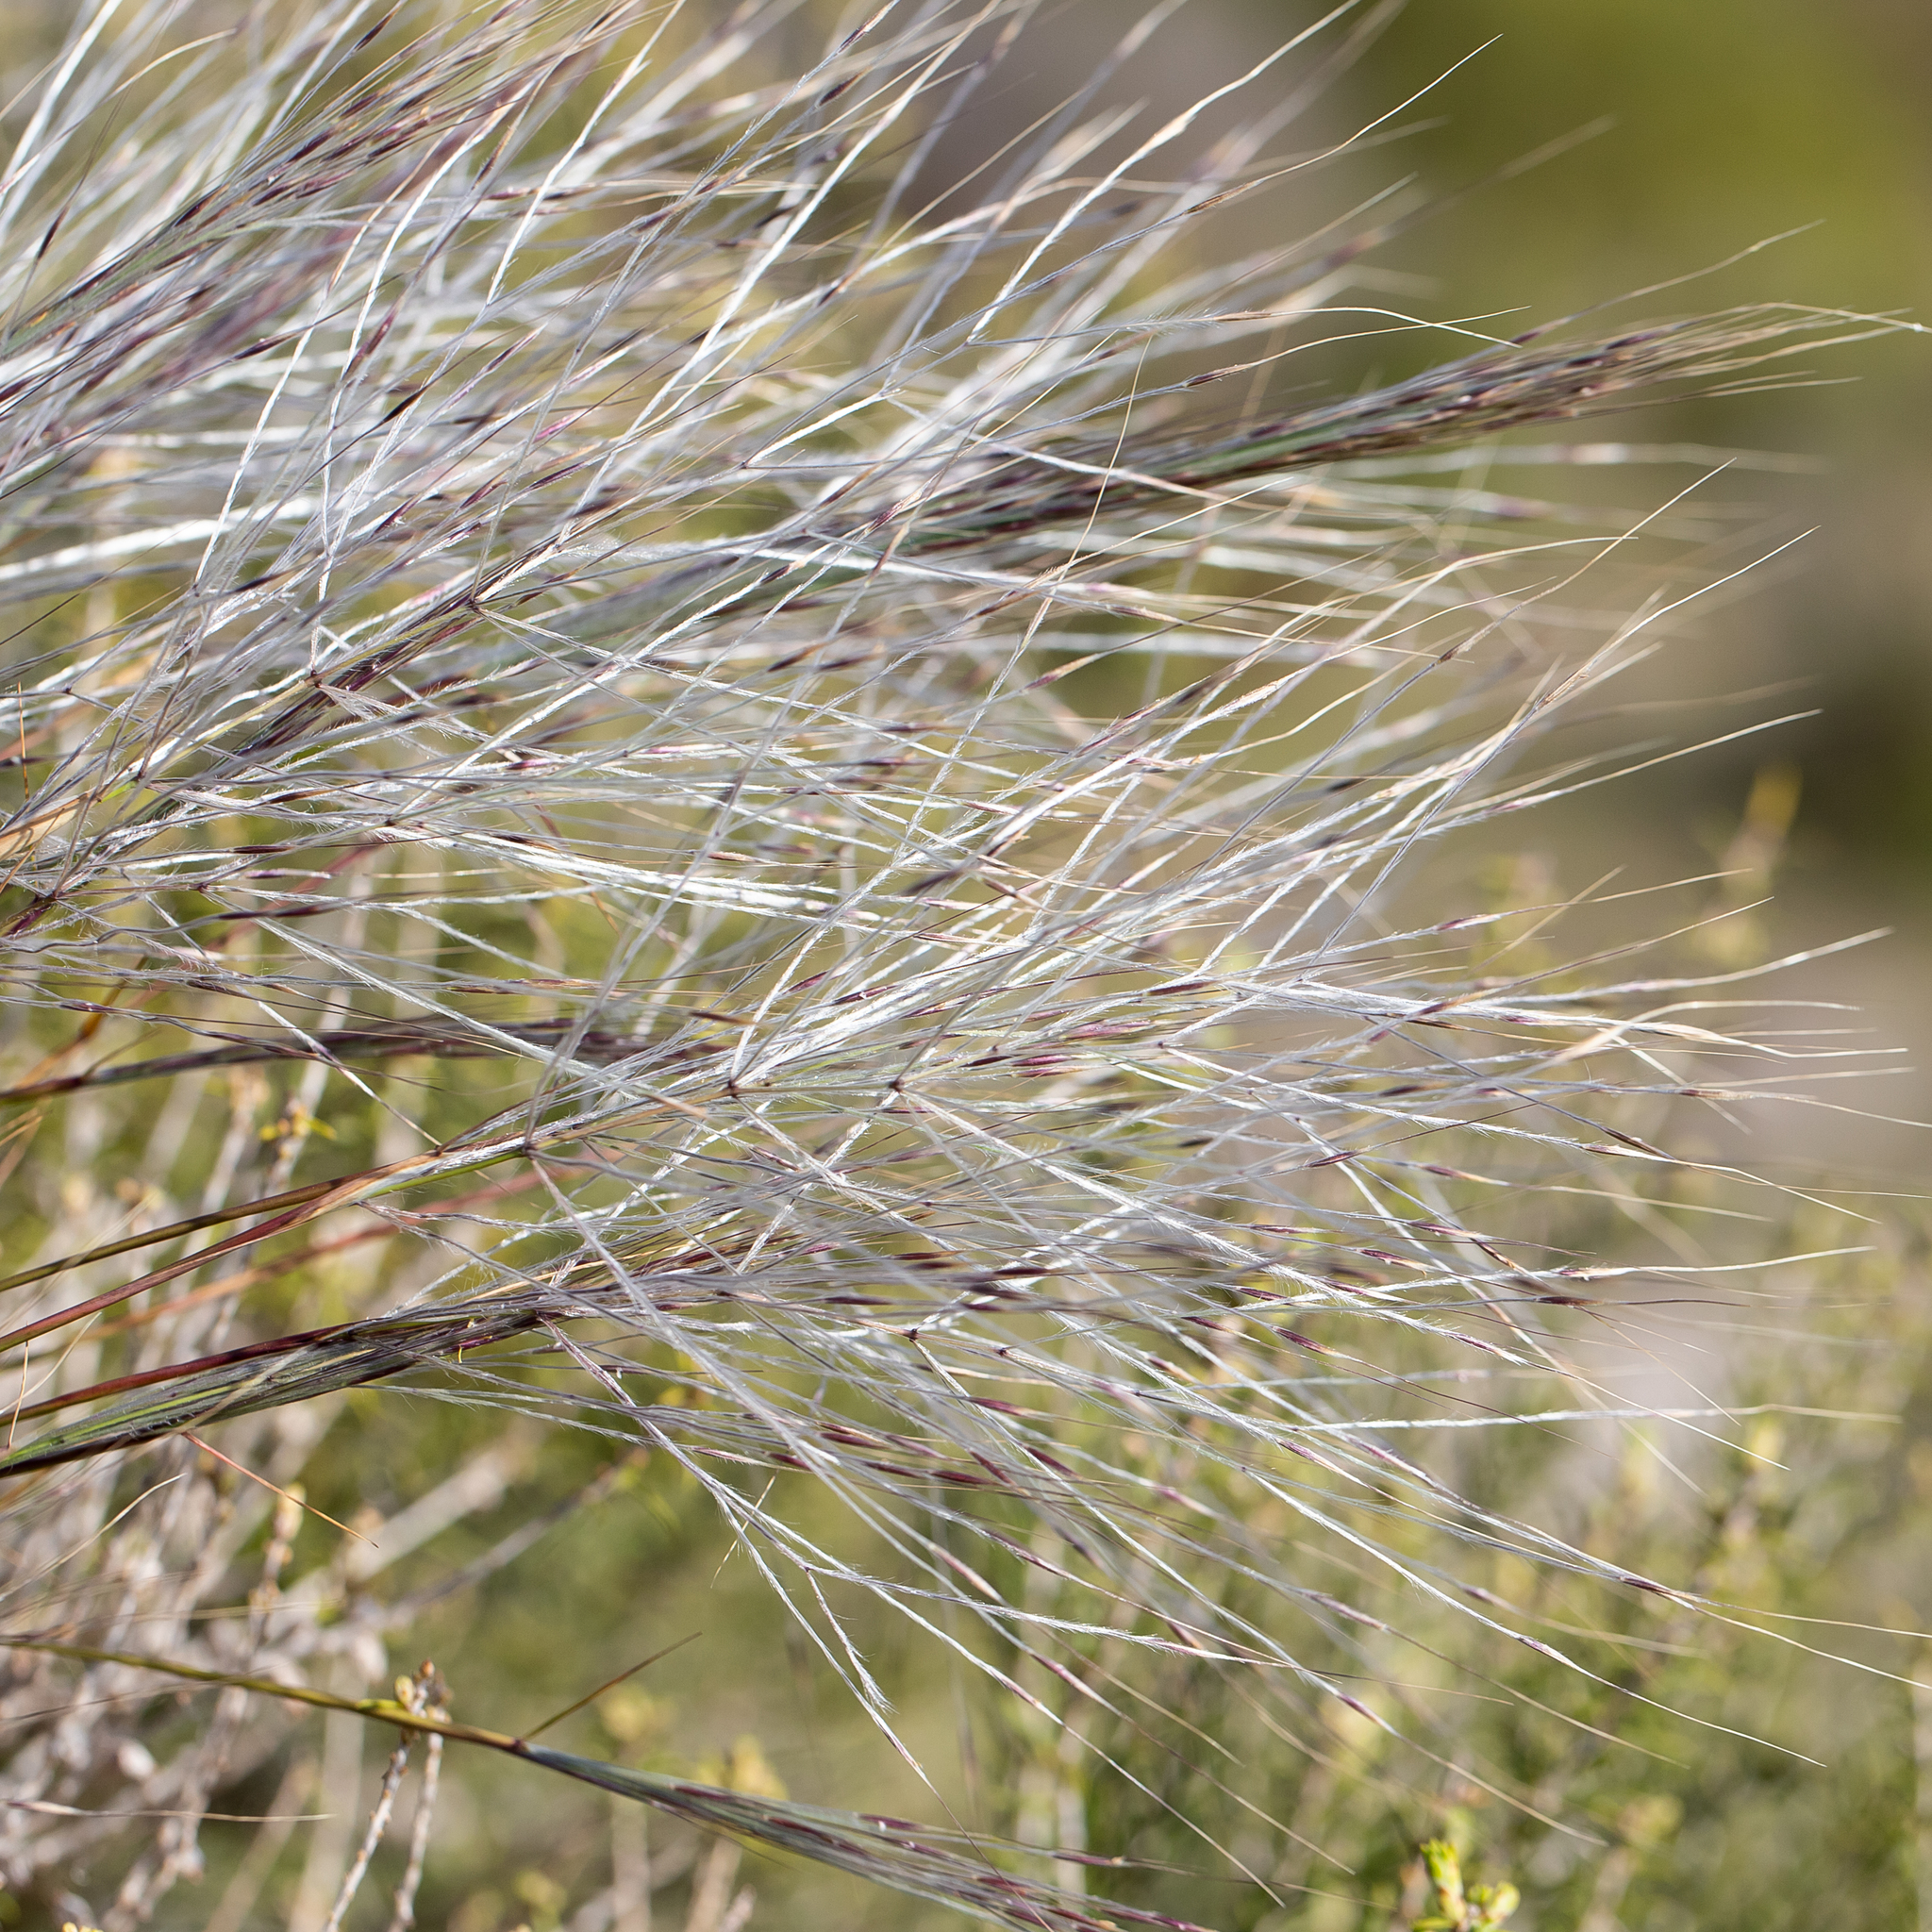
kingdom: Plantae
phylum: Tracheophyta
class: Liliopsida
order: Poales
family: Poaceae
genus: Austrostipa
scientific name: Austrostipa elegantissima
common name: Feather spear grass
